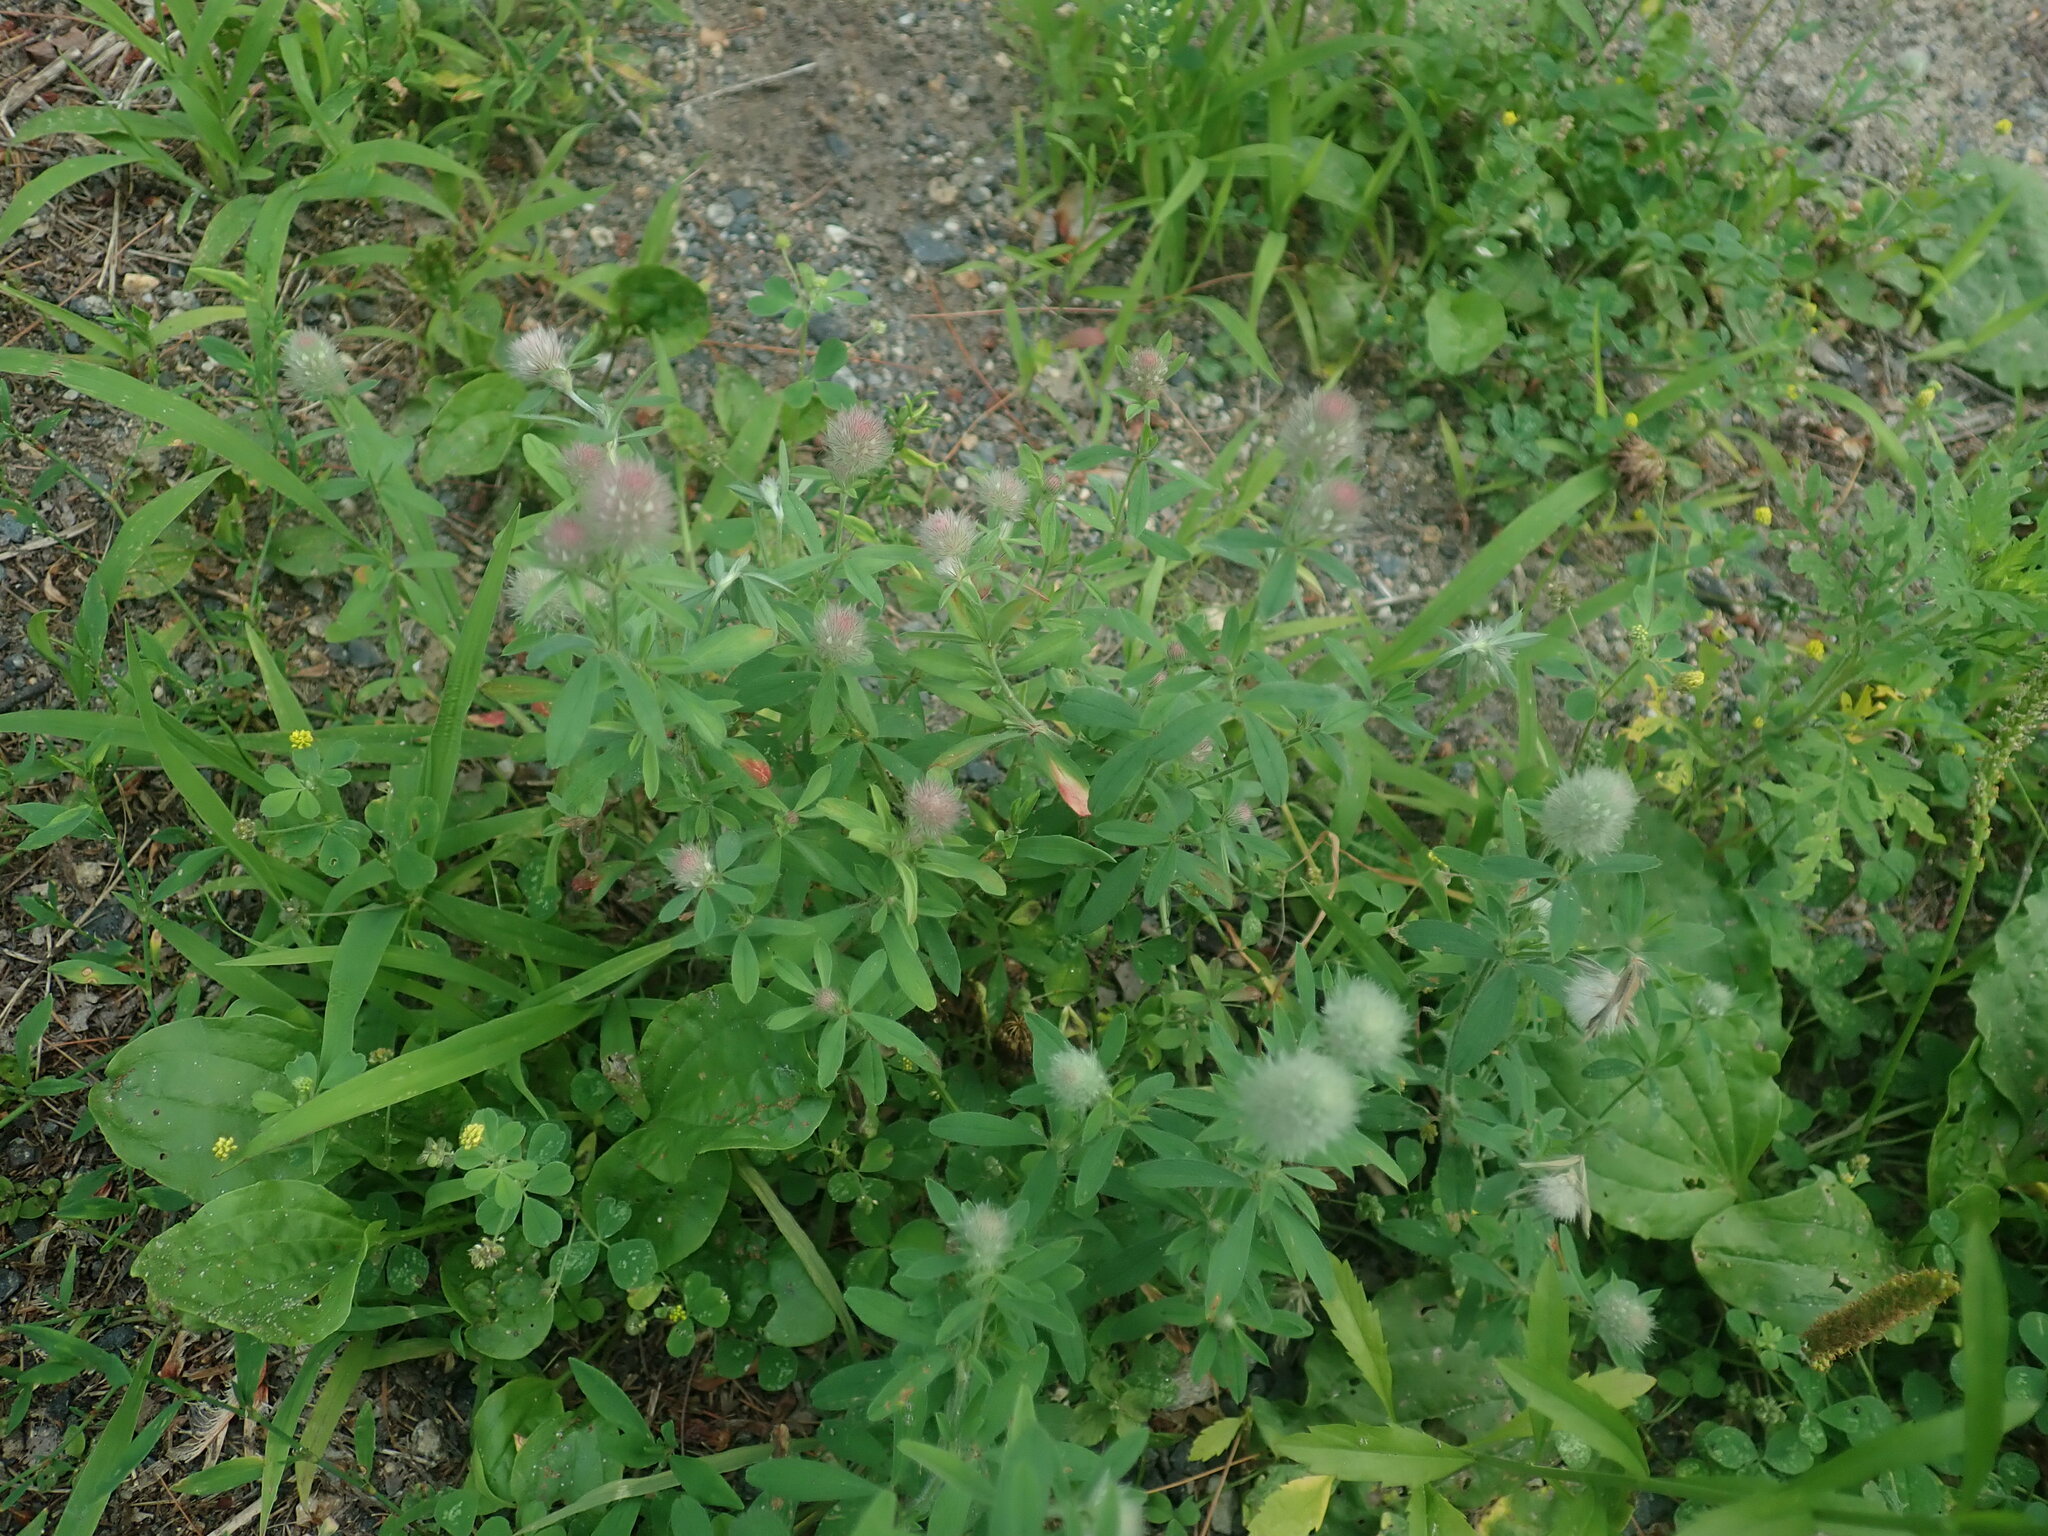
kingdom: Plantae
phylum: Tracheophyta
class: Magnoliopsida
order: Fabales
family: Fabaceae
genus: Trifolium
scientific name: Trifolium arvense
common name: Hare's-foot clover
